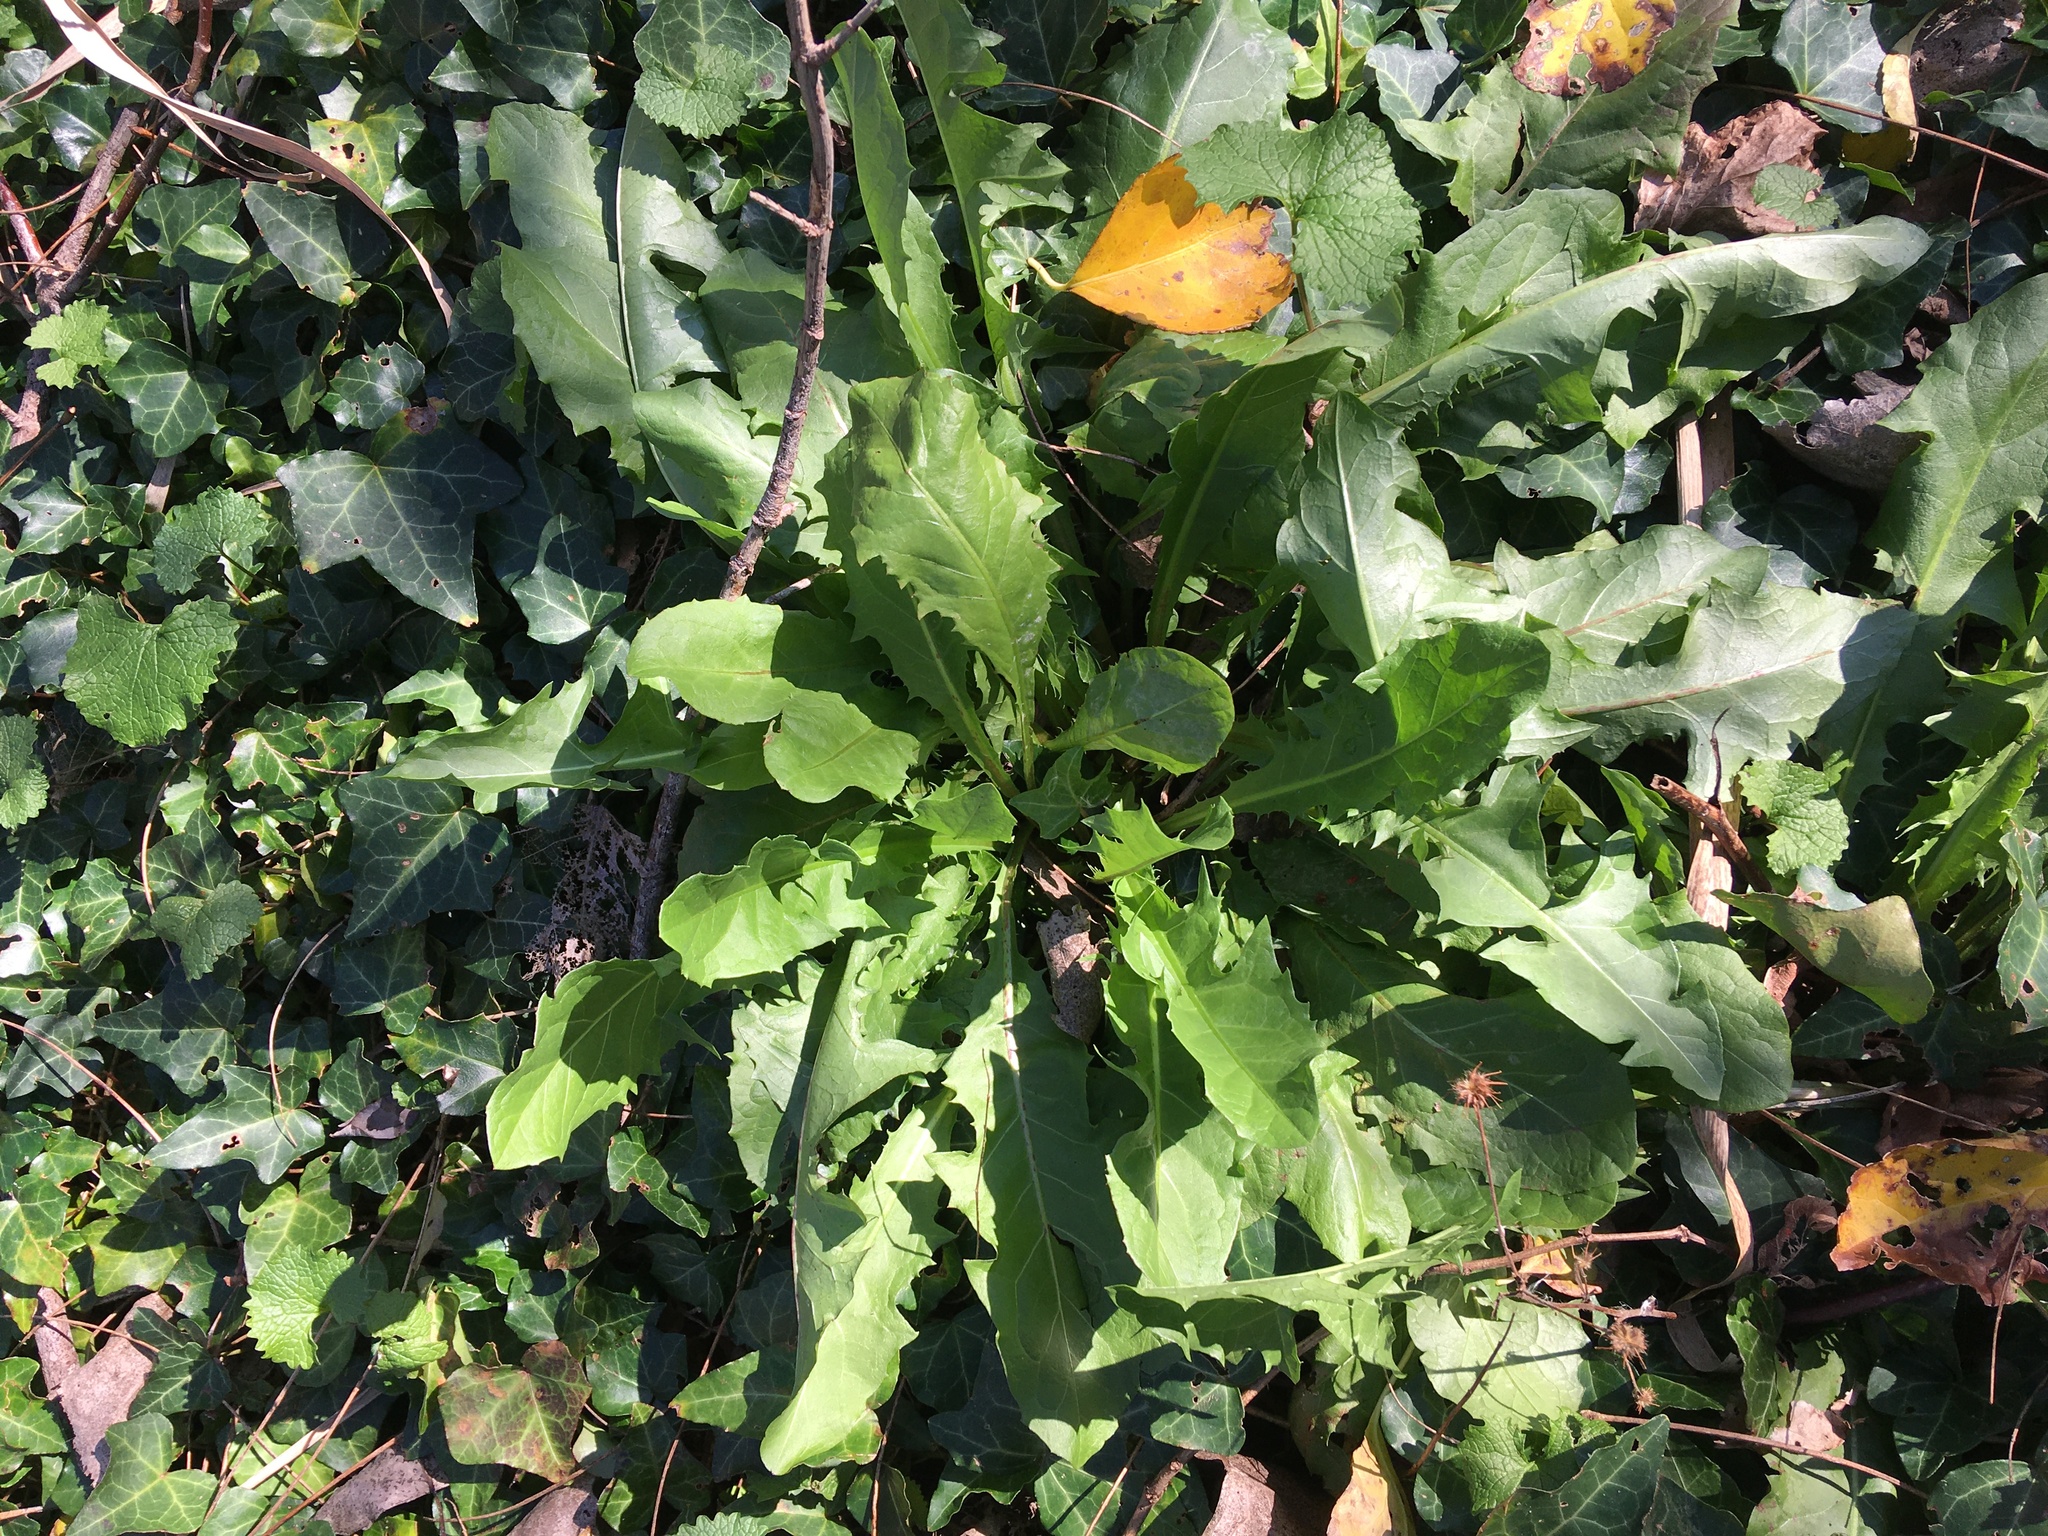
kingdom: Plantae
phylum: Tracheophyta
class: Magnoliopsida
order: Asterales
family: Asteraceae
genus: Taraxacum
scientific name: Taraxacum officinale
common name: Common dandelion
